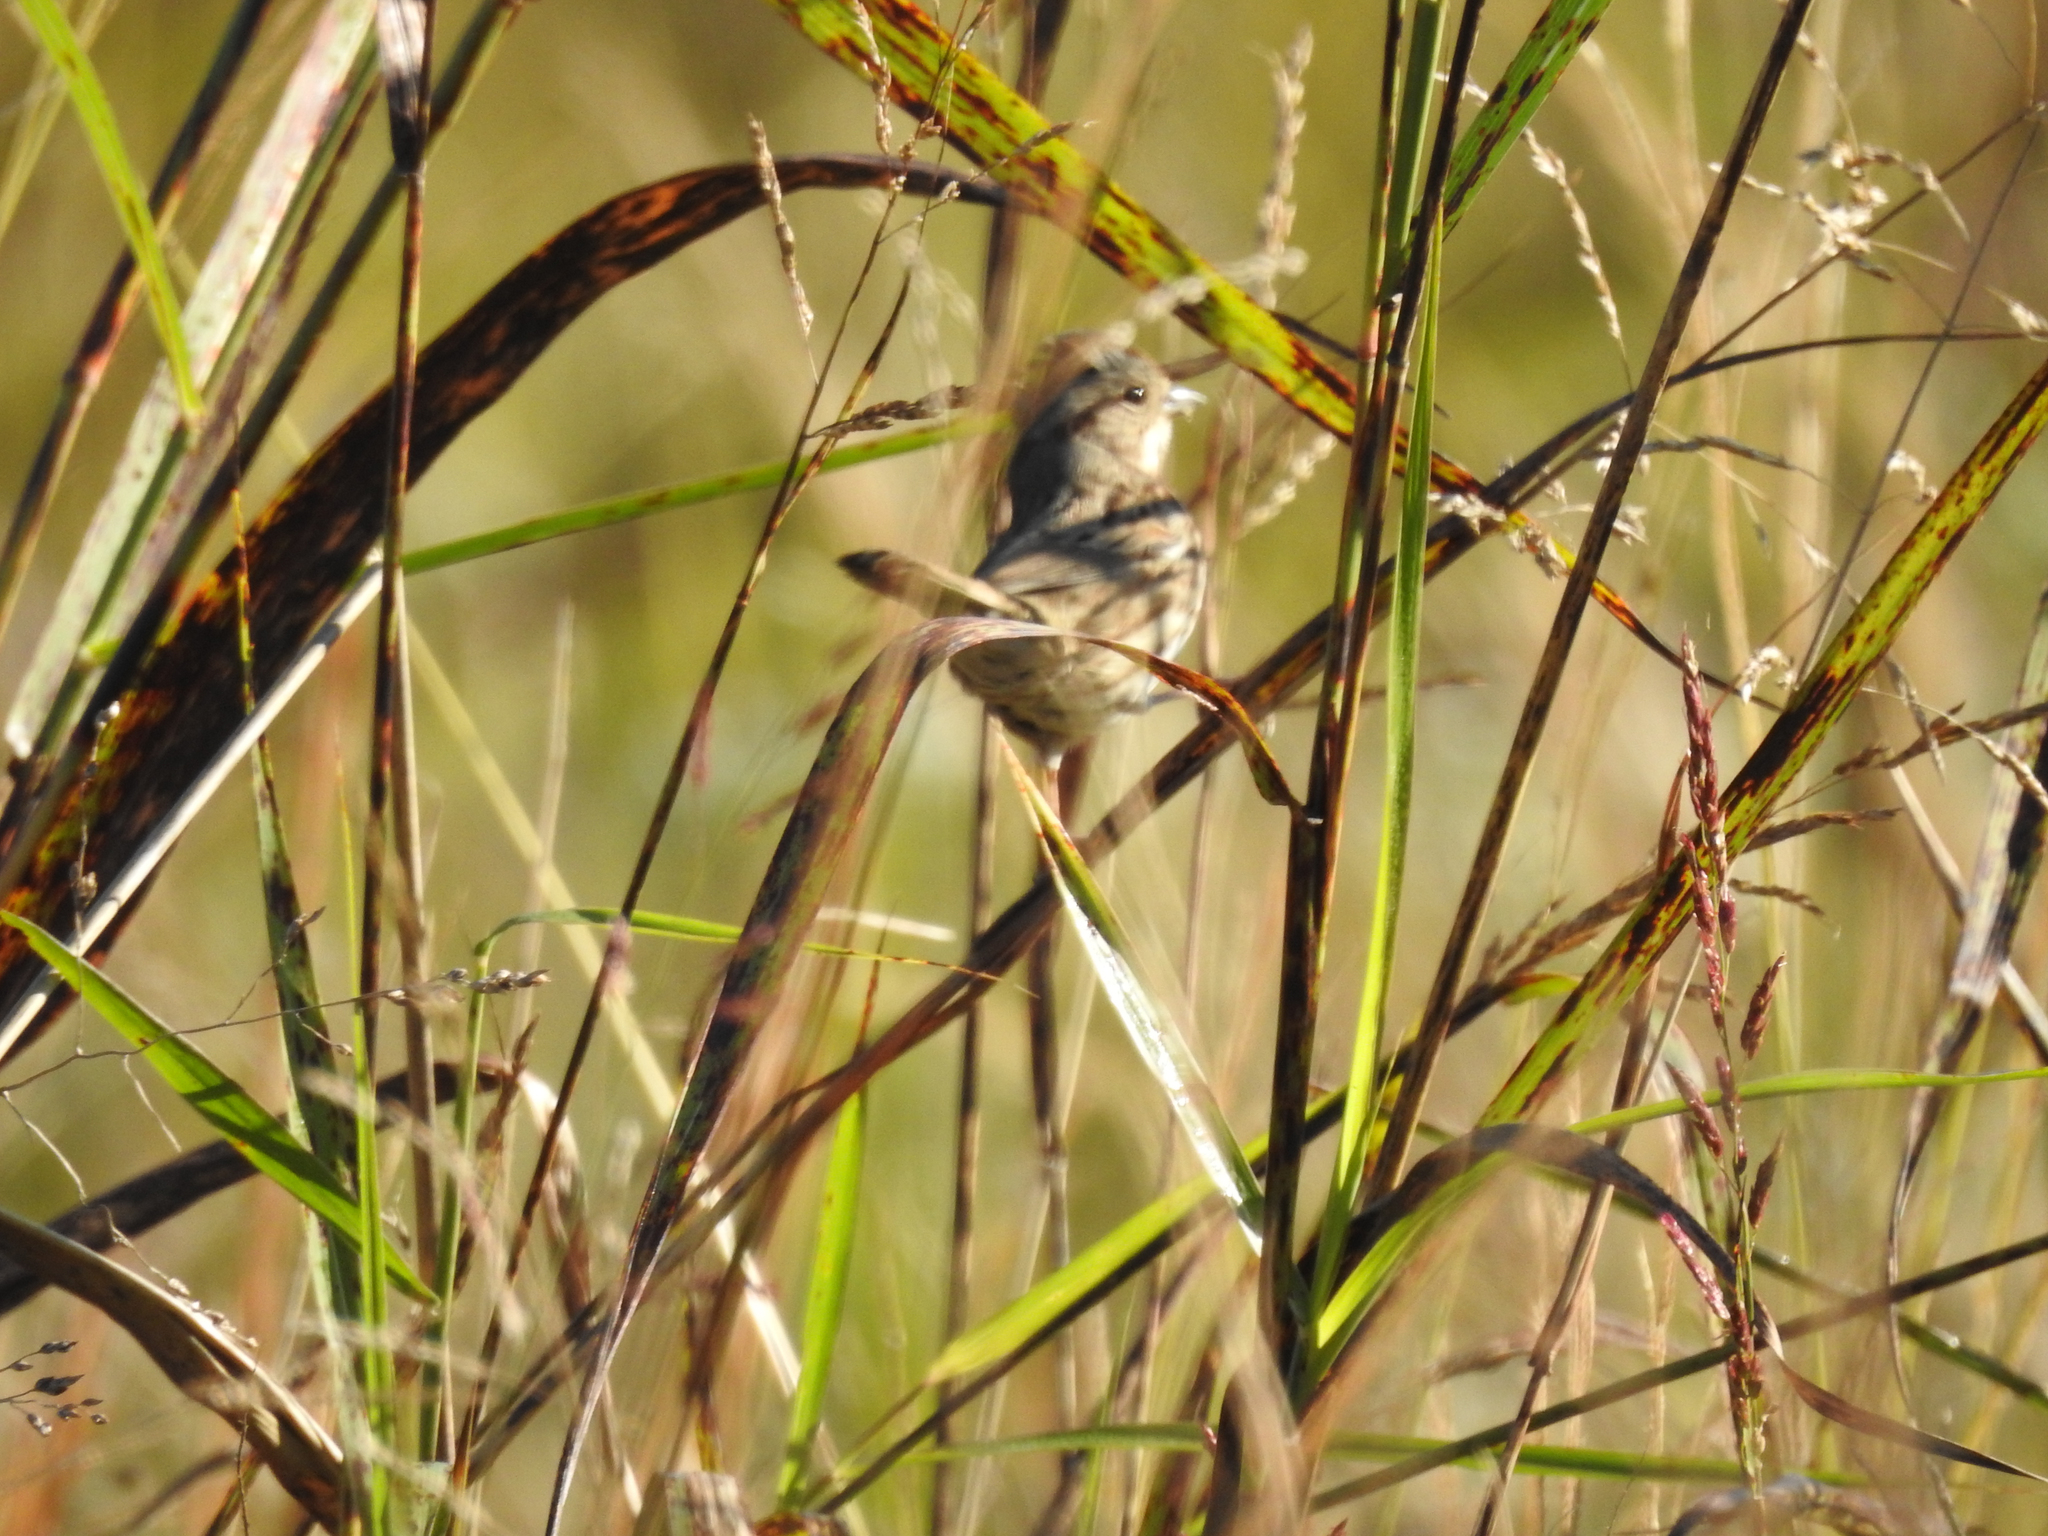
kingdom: Animalia
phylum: Chordata
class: Aves
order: Passeriformes
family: Passerellidae
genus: Melospiza
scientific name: Melospiza melodia
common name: Song sparrow
